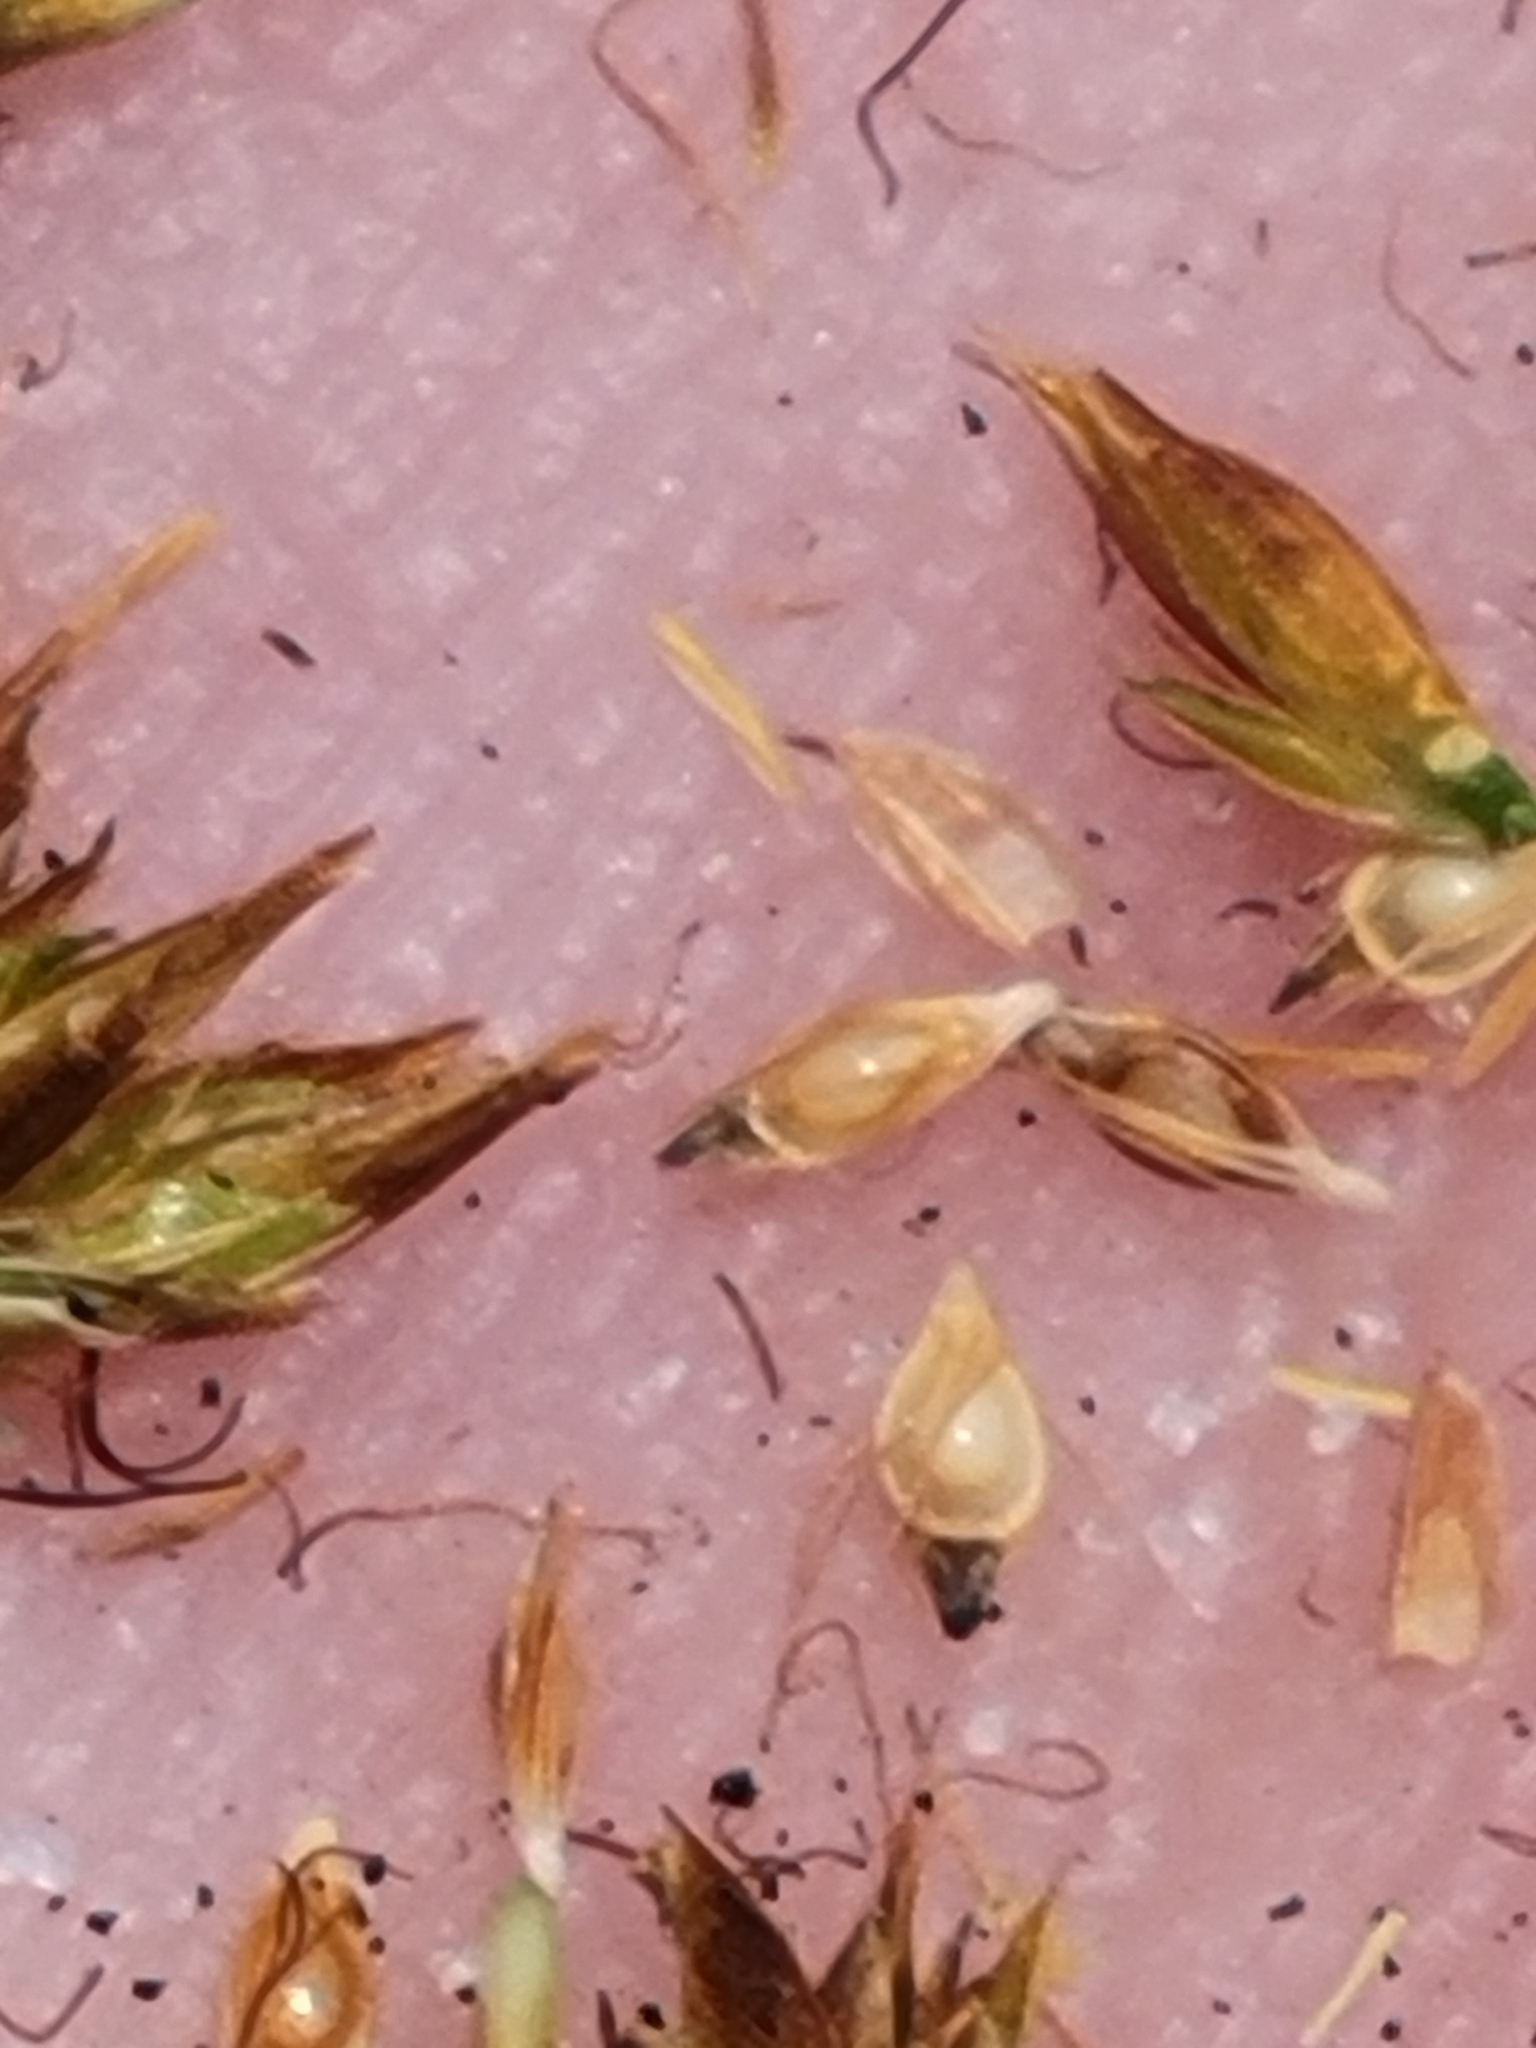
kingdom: Plantae
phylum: Tracheophyta
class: Liliopsida
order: Poales
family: Cyperaceae
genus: Rhynchospora
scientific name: Rhynchospora filifolia
